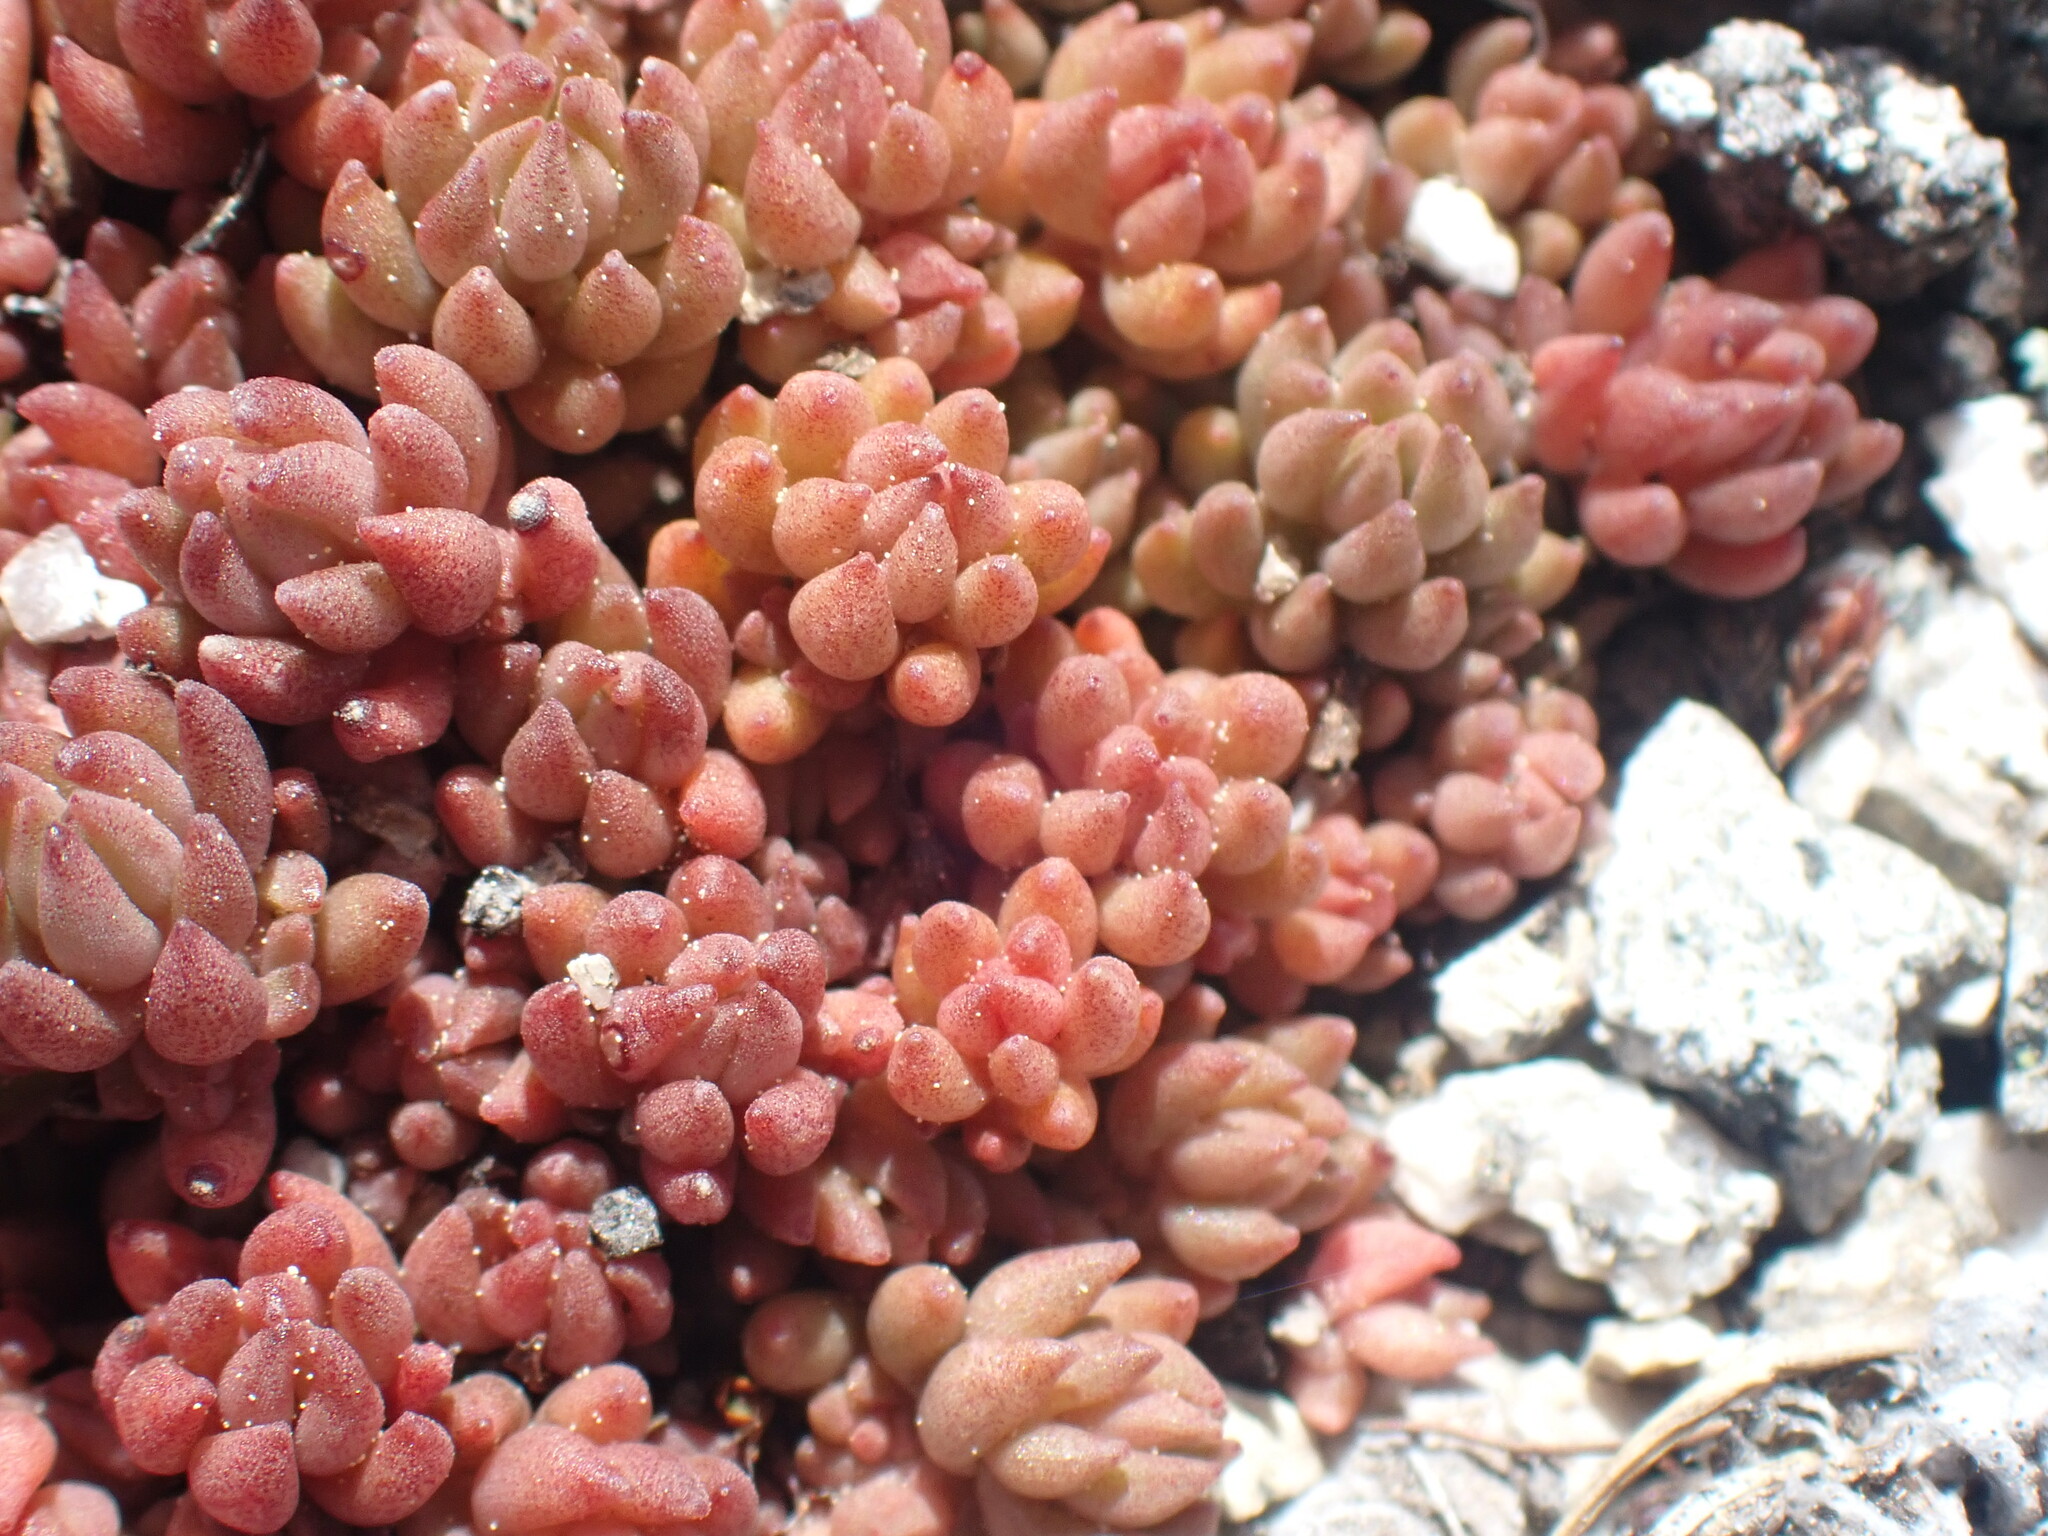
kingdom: Plantae
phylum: Tracheophyta
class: Magnoliopsida
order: Saxifragales
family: Crassulaceae
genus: Sedum
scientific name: Sedum lanceolatum
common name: Common stonecrop
